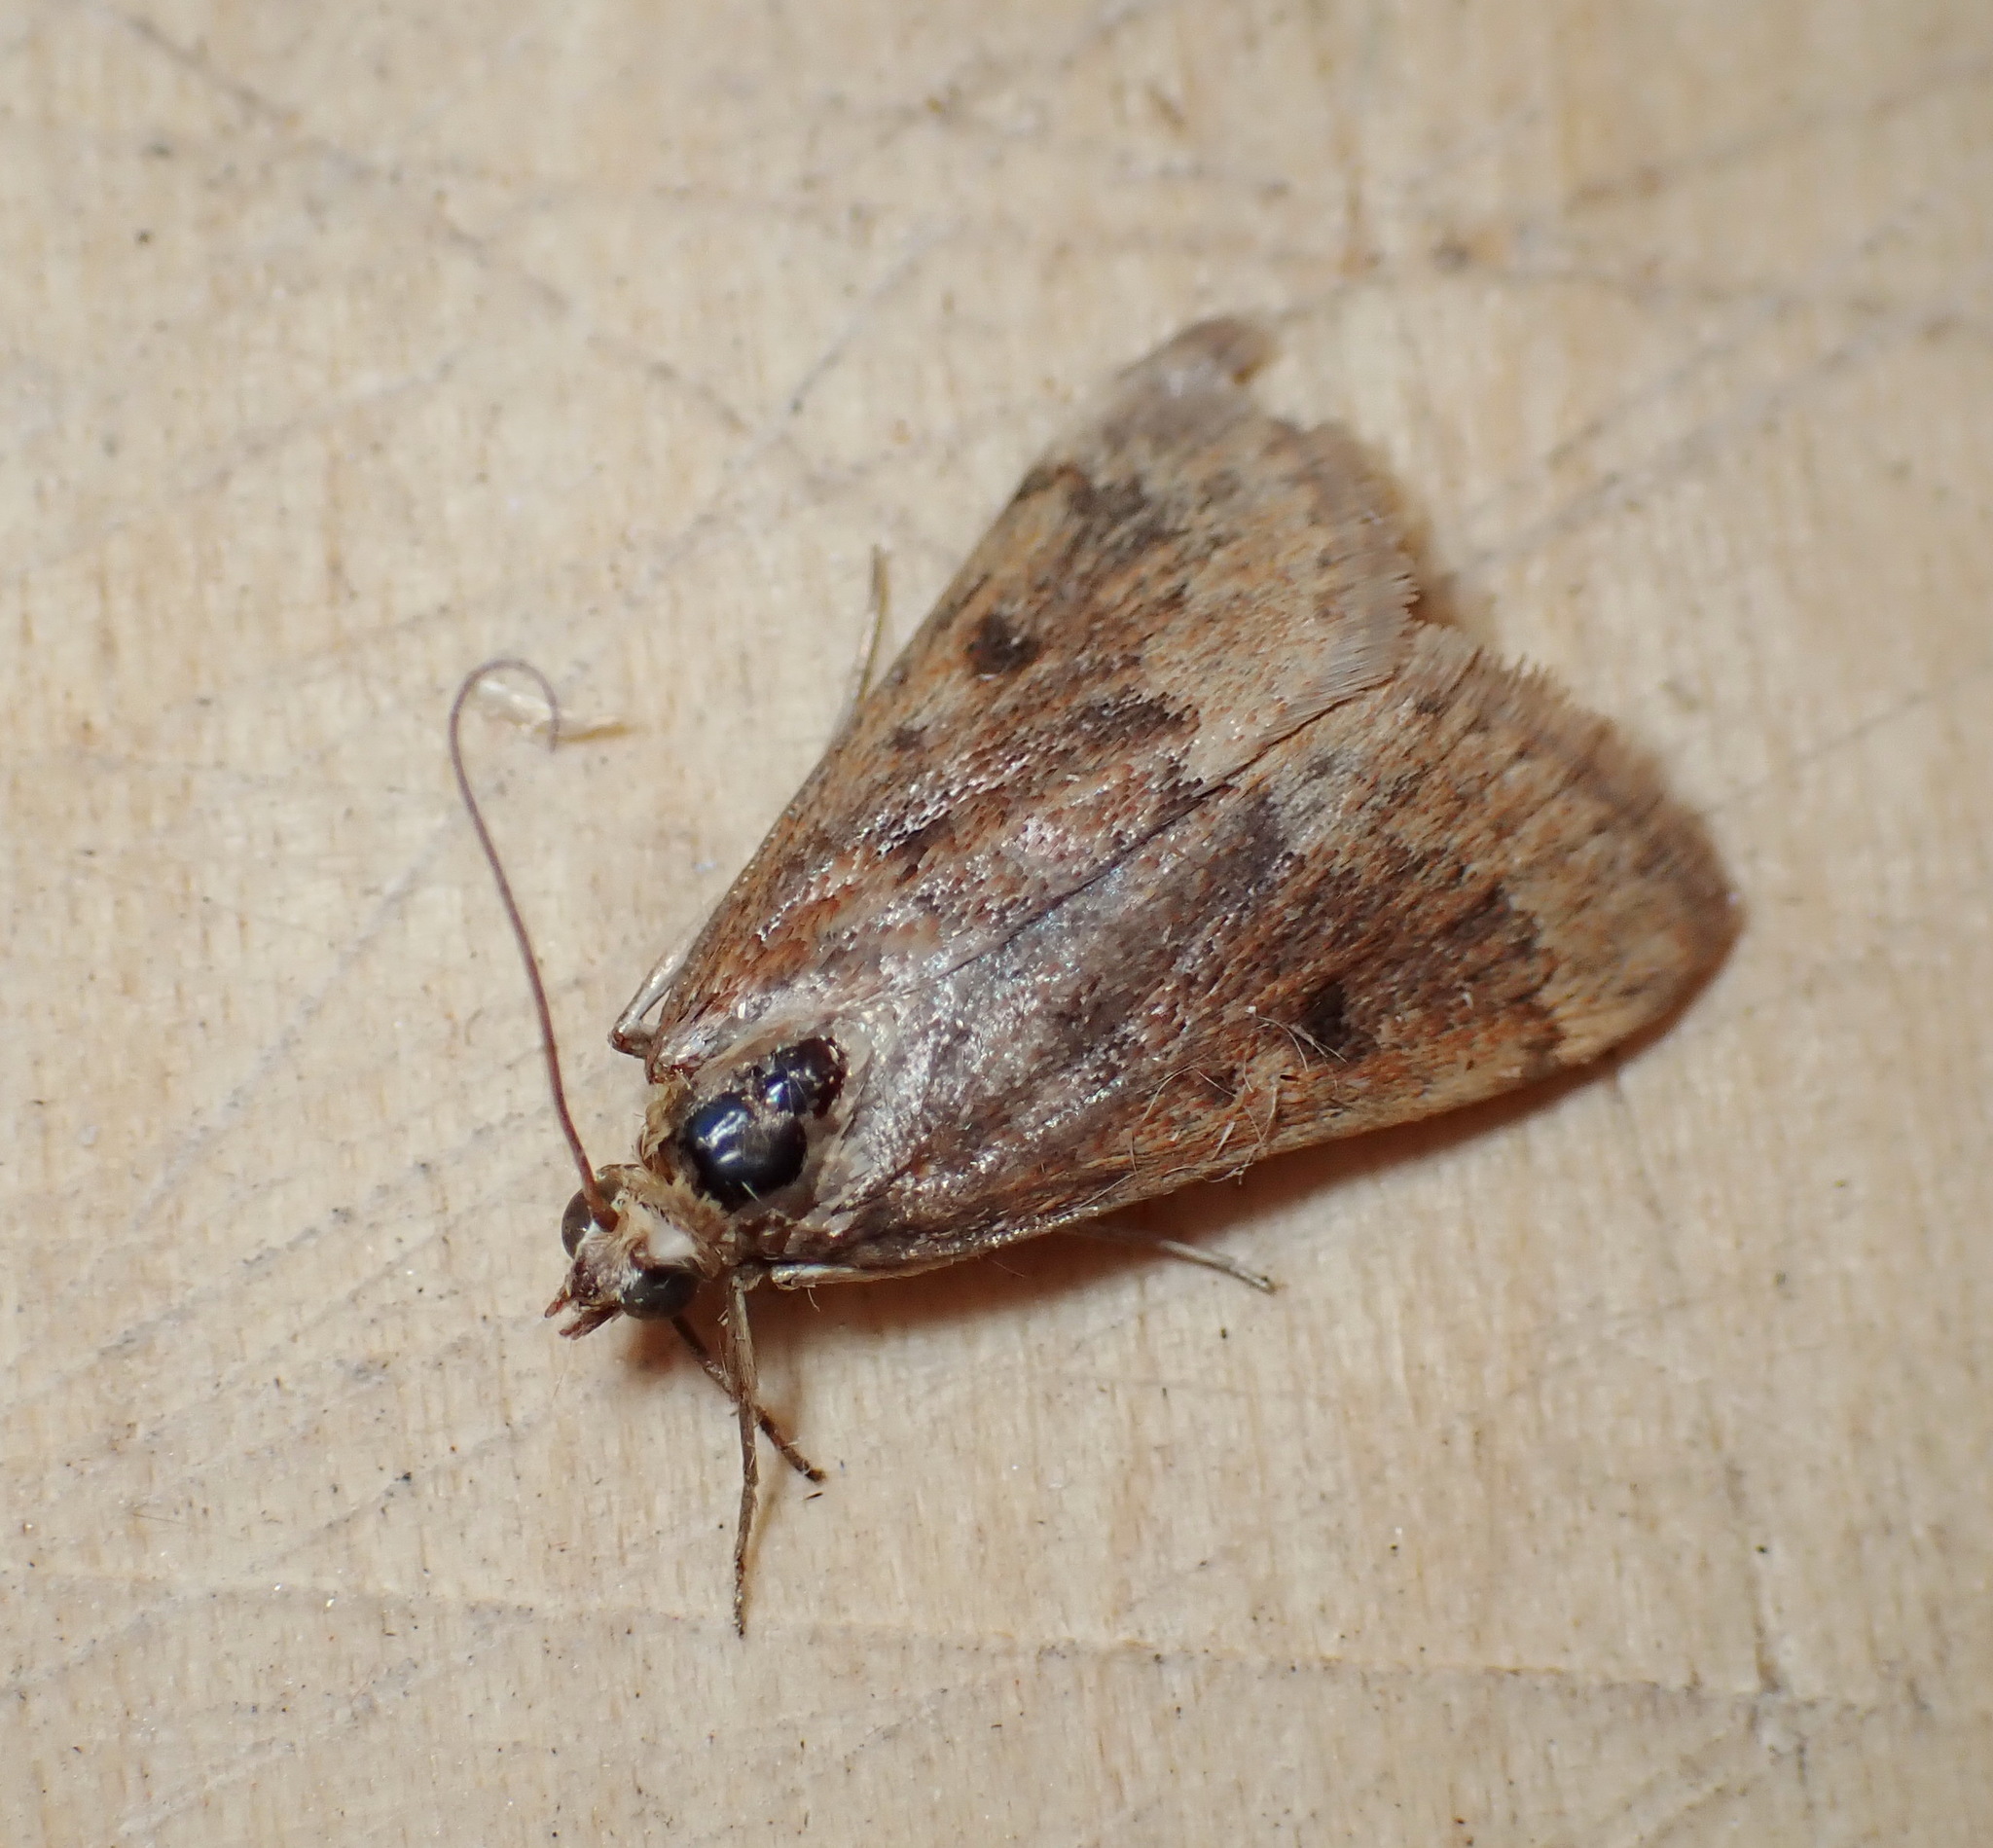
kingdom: Animalia
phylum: Arthropoda
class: Insecta
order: Lepidoptera
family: Crambidae
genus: Achyra
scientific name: Achyra rantalis
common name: Garden webworm
